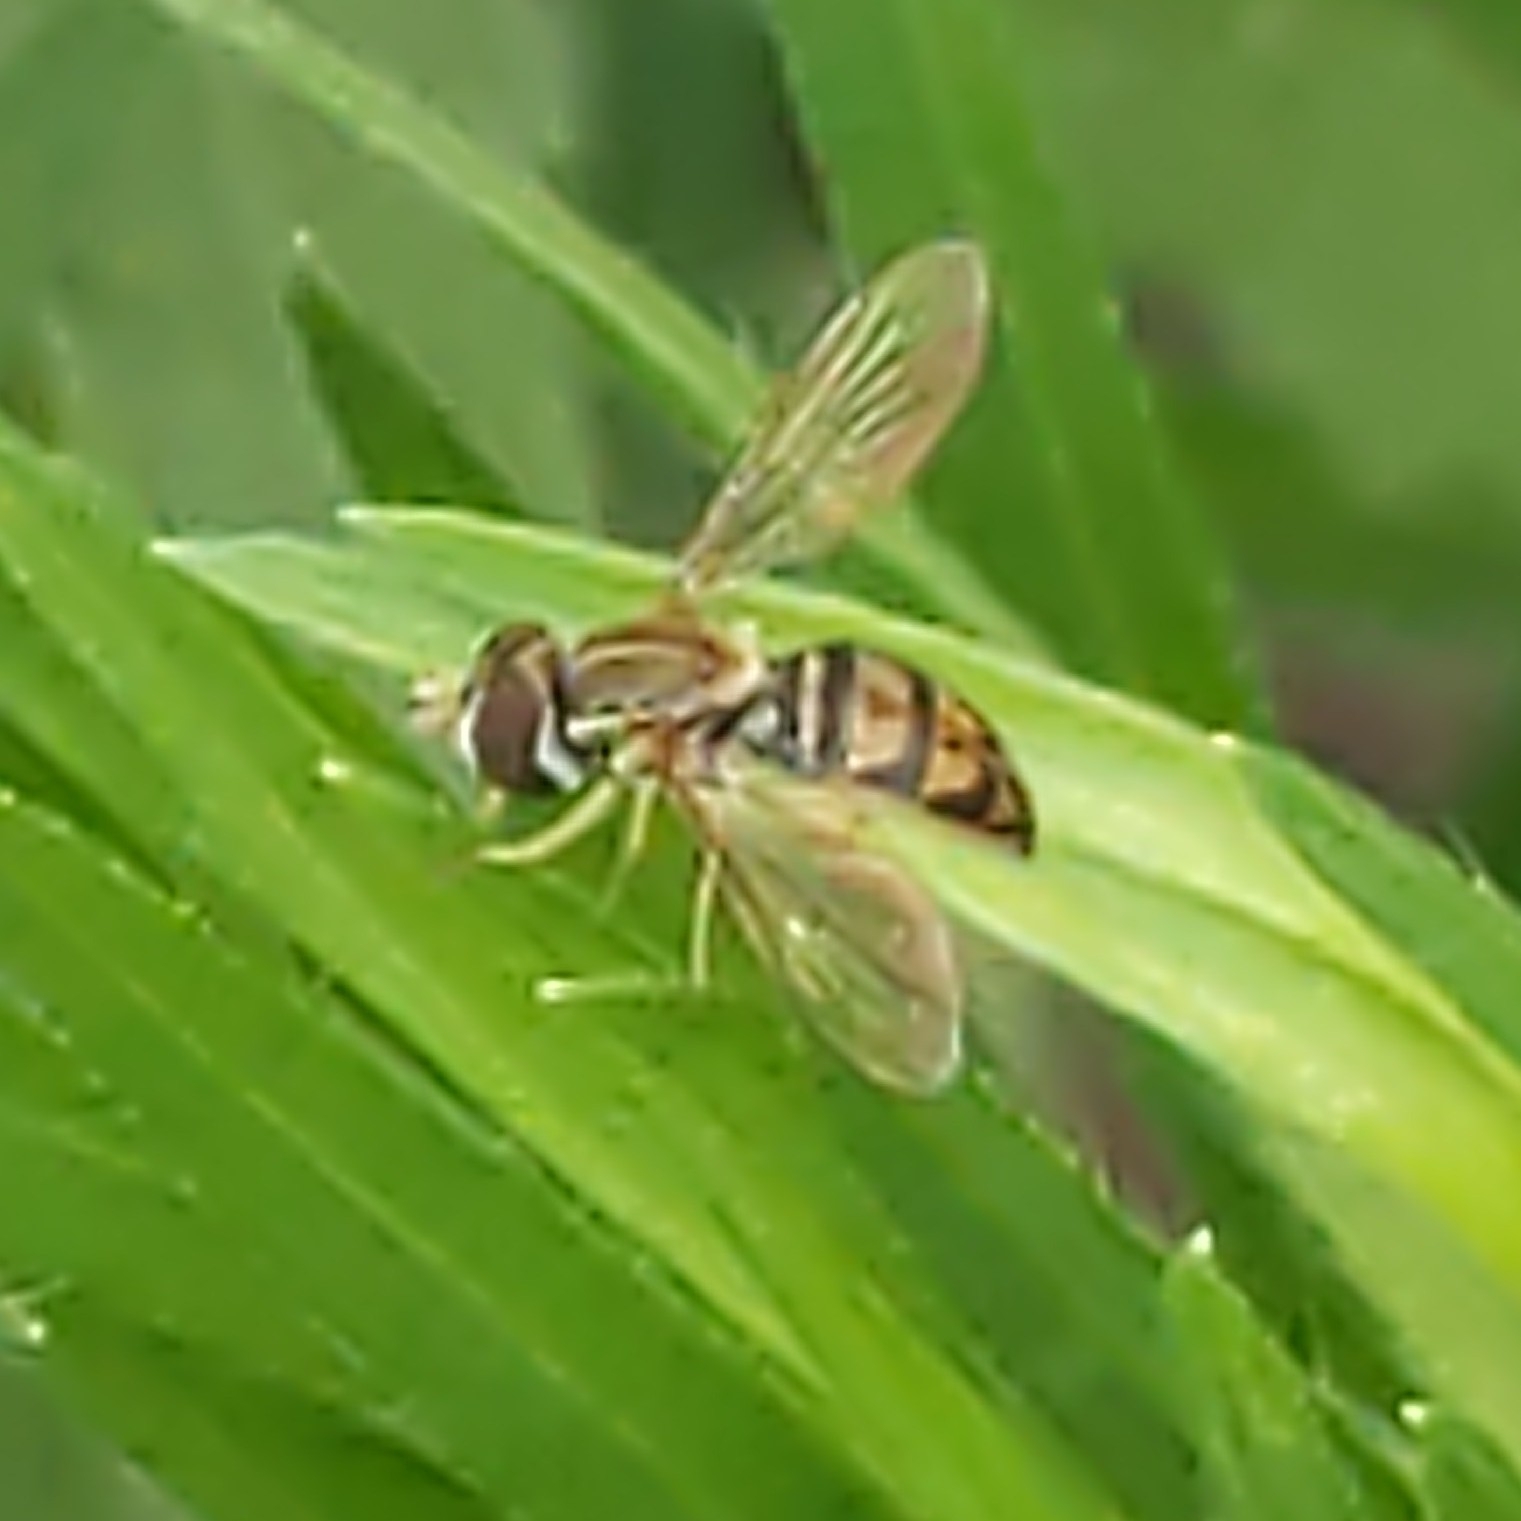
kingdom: Animalia
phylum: Arthropoda
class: Insecta
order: Diptera
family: Syrphidae
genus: Toxomerus
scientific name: Toxomerus marginatus
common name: Syrphid fly
